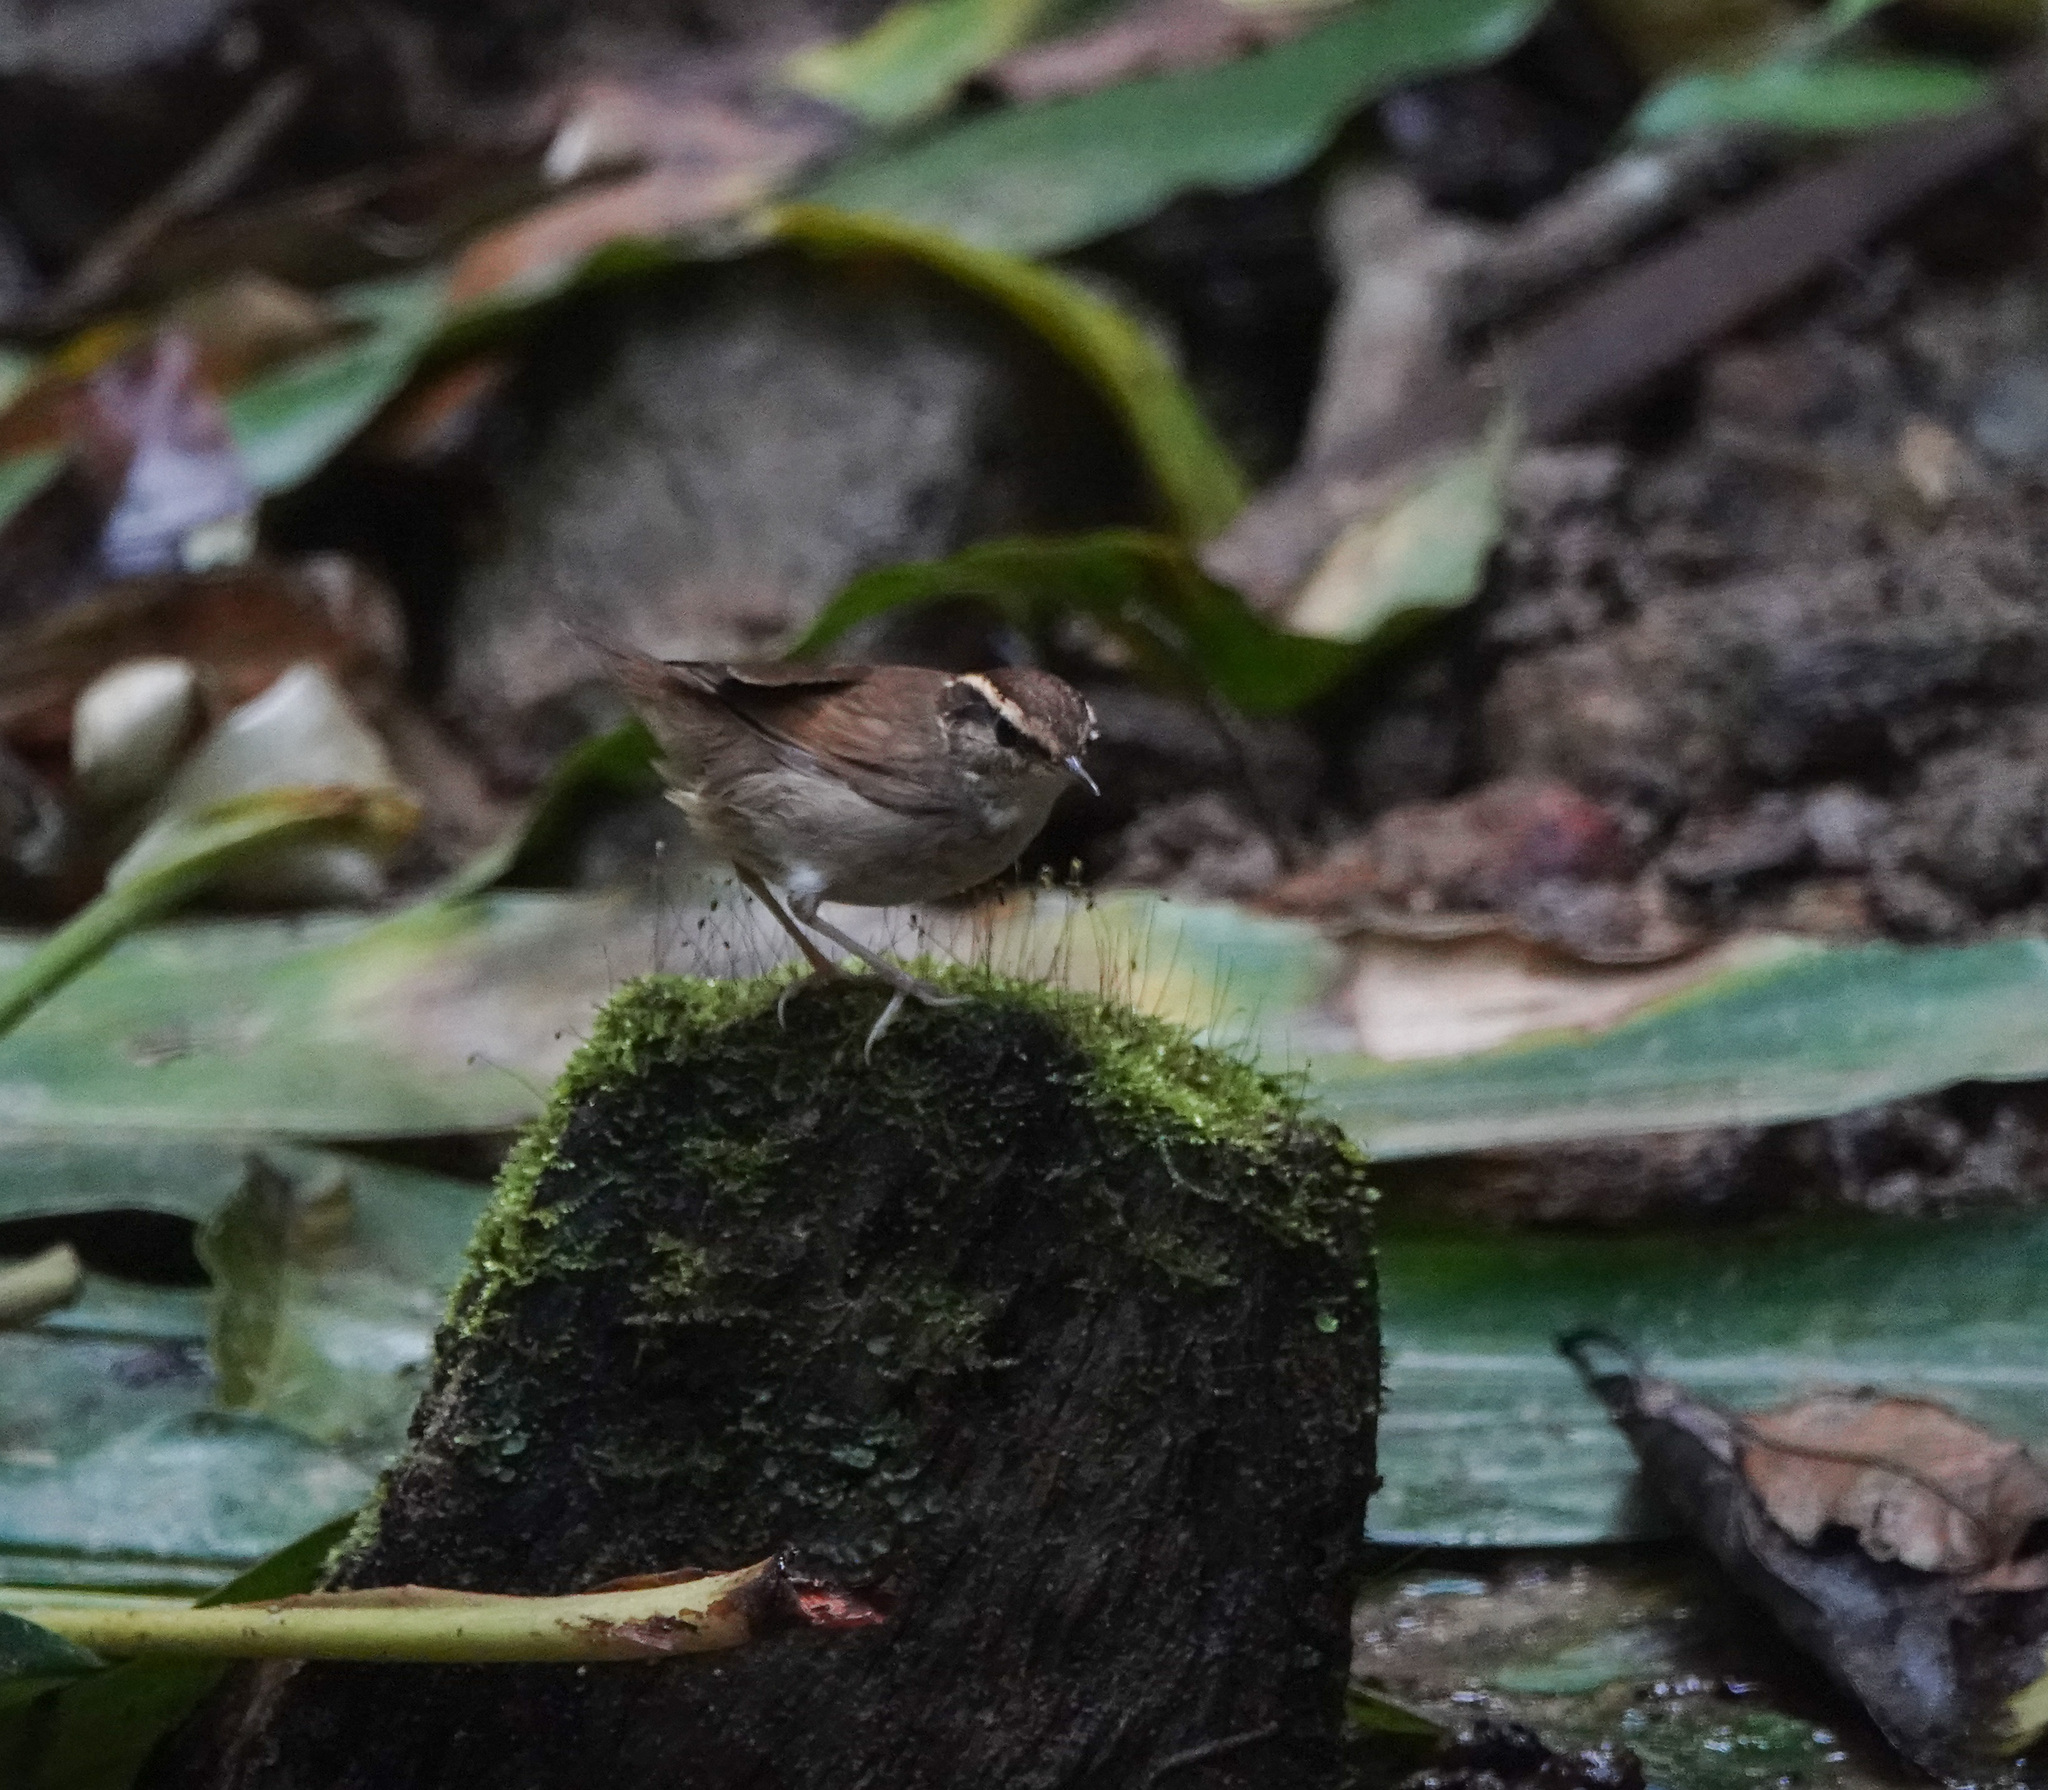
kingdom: Animalia
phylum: Chordata
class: Aves
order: Passeriformes
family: Cettiidae
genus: Urosphena
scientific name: Urosphena squameiceps
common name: Asian stubtail
